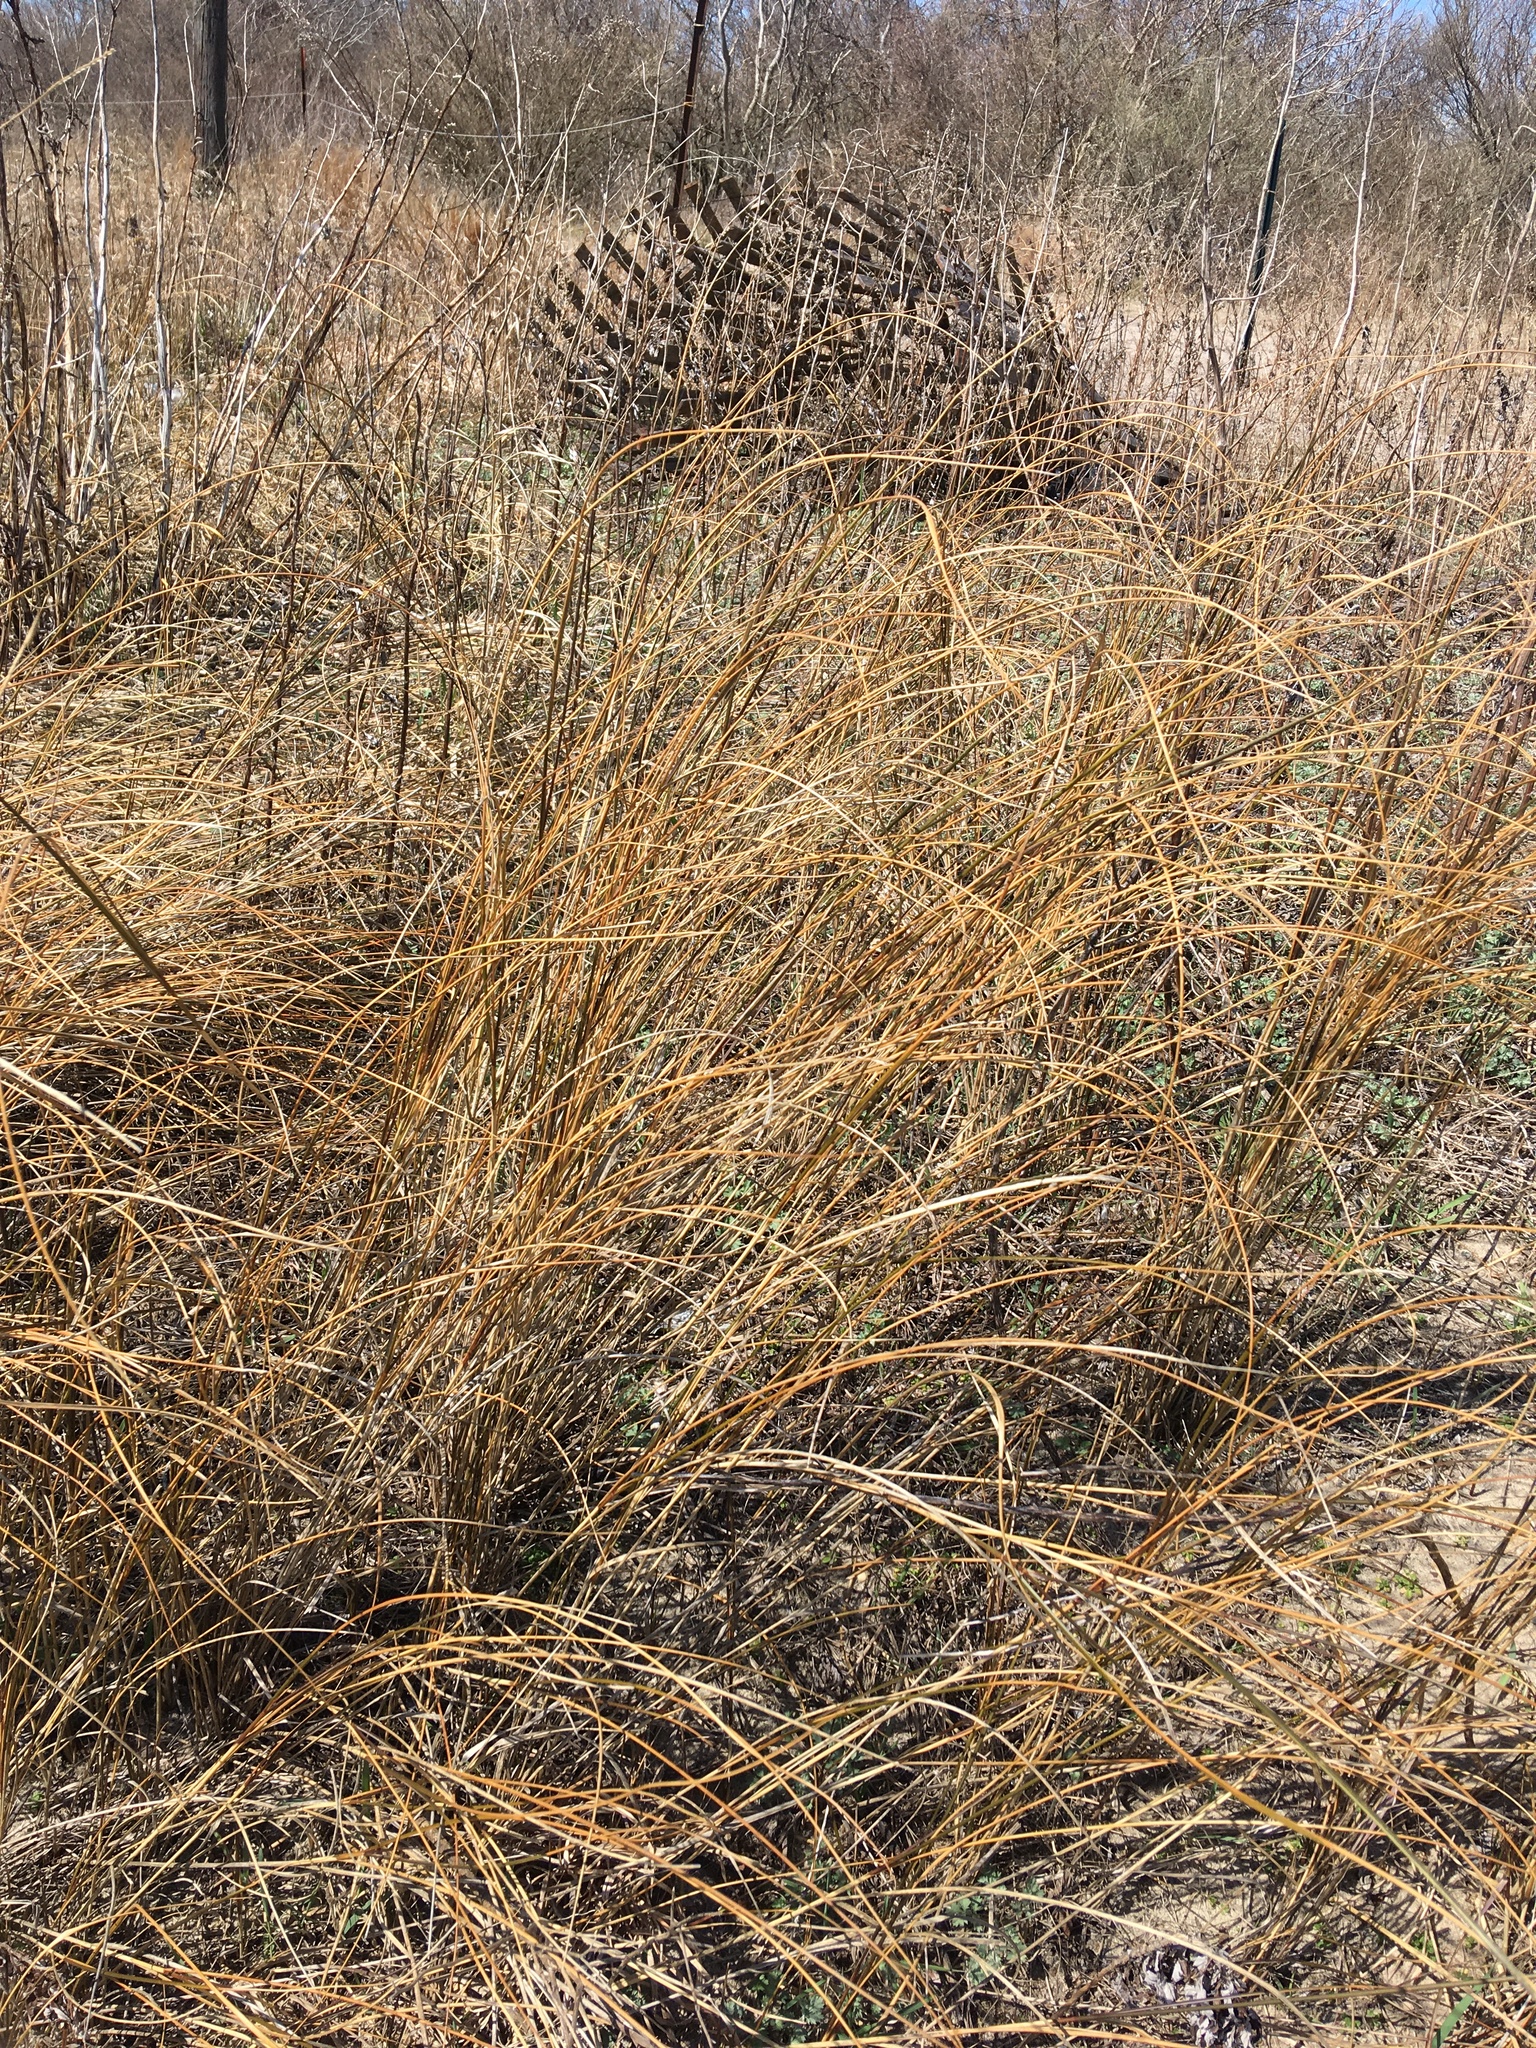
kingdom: Plantae
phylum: Tracheophyta
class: Liliopsida
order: Poales
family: Poaceae
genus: Sporobolus
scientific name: Sporobolus pumilus
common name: Highwater grass
